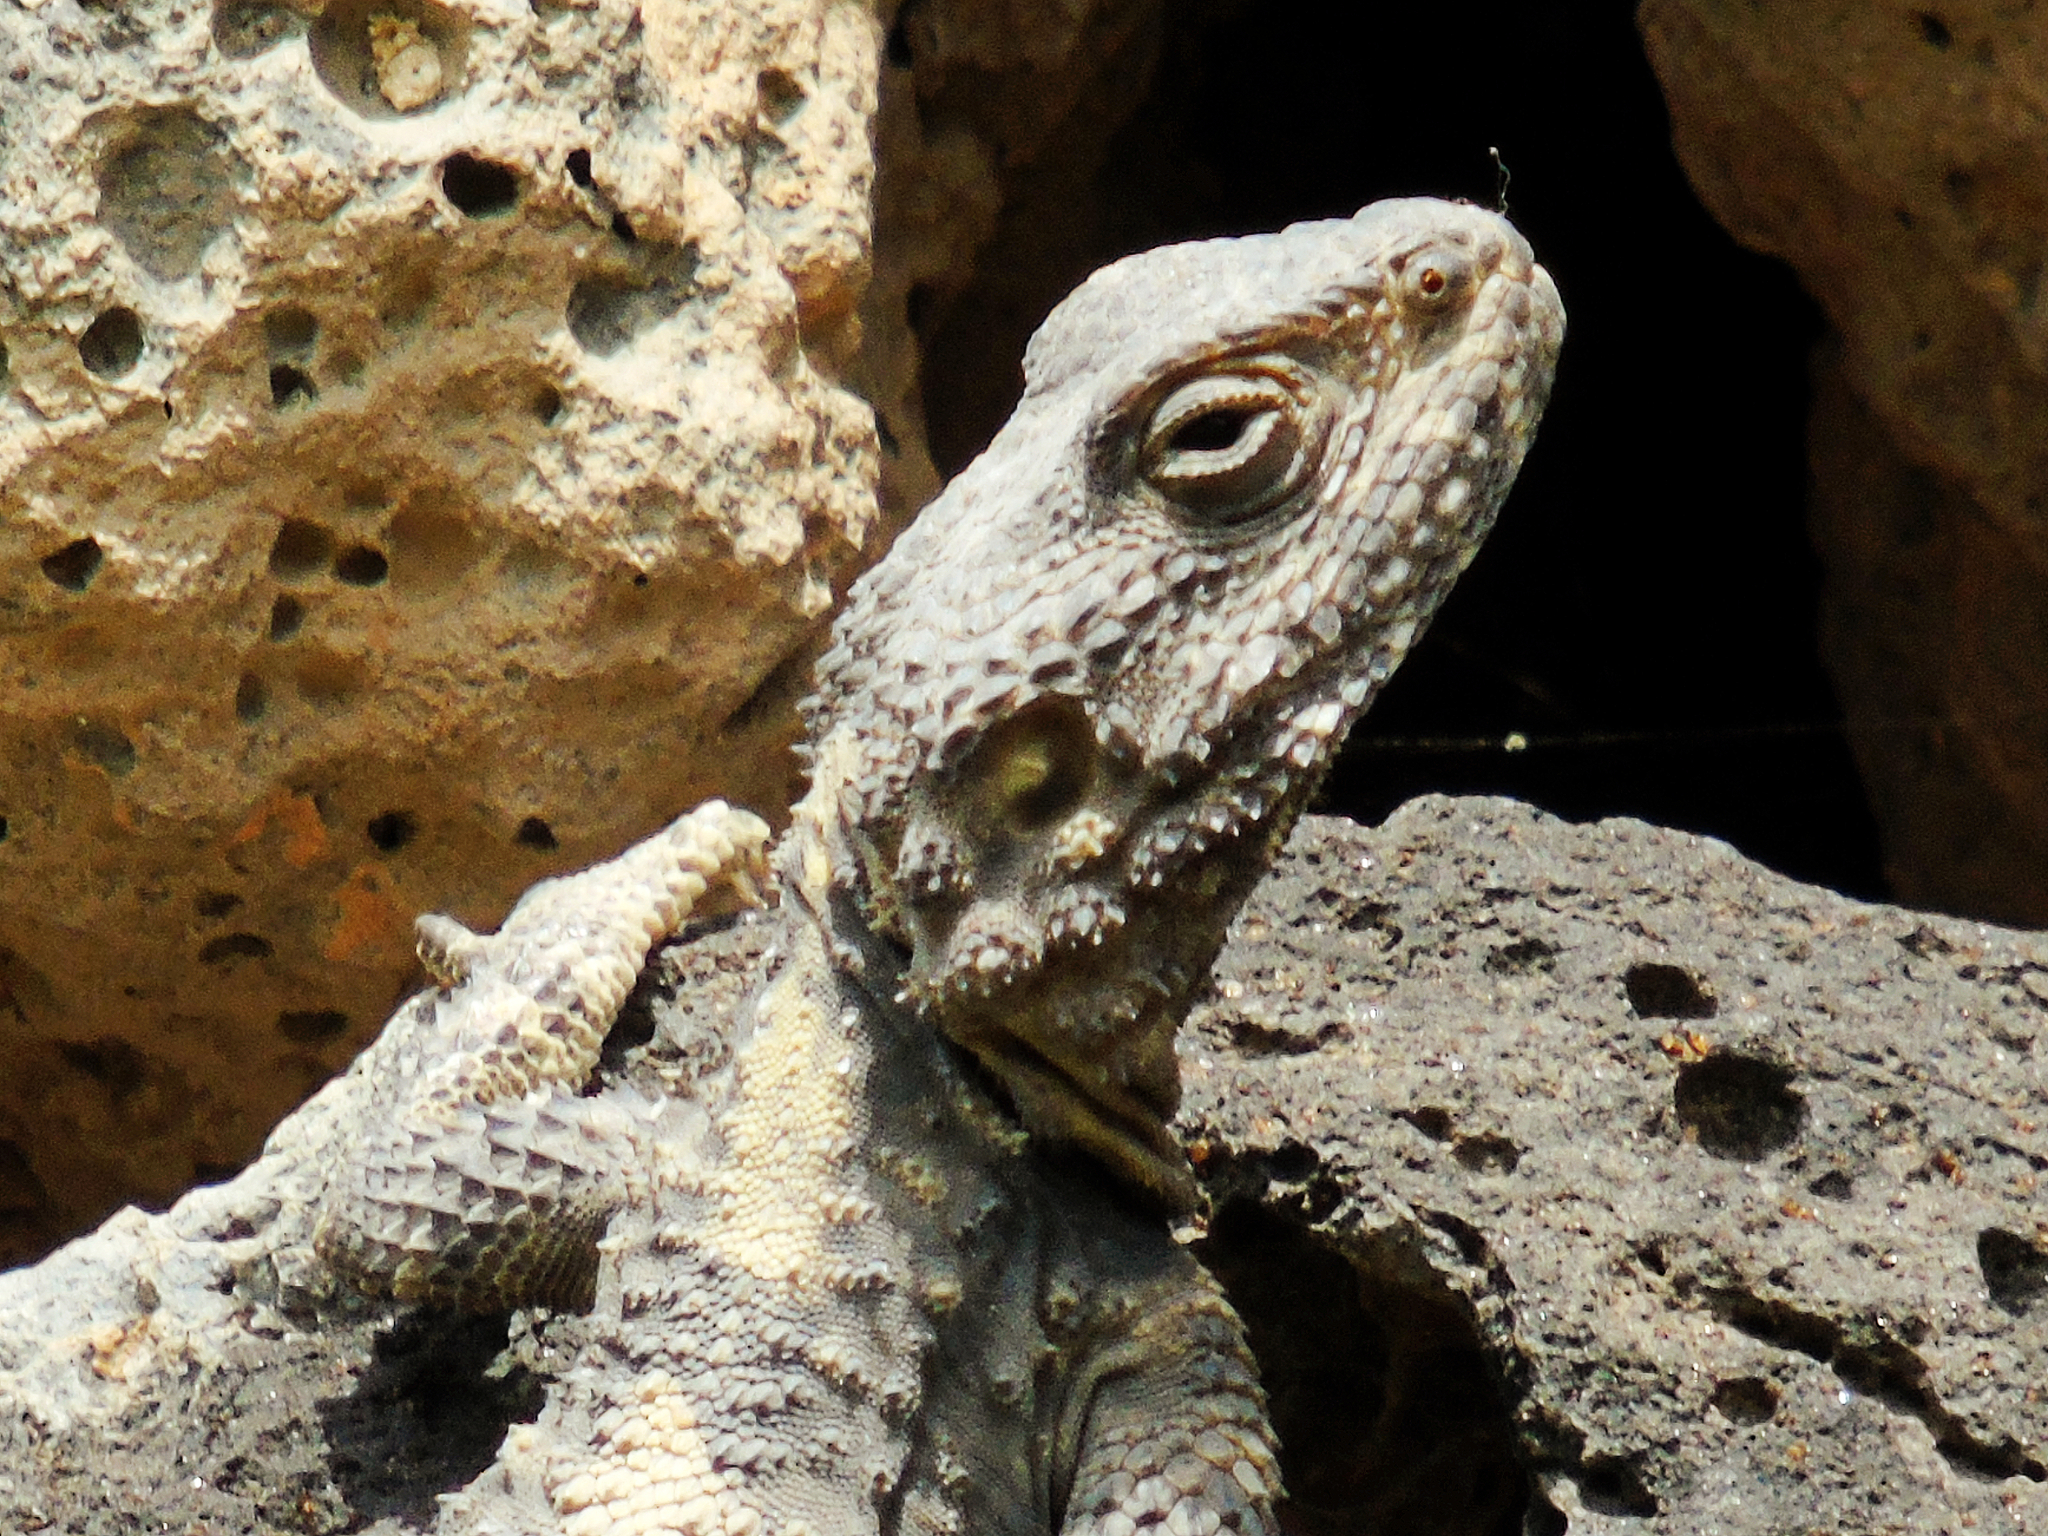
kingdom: Animalia
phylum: Chordata
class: Squamata
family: Agamidae
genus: Stellagama
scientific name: Stellagama stellio
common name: Starred agama
